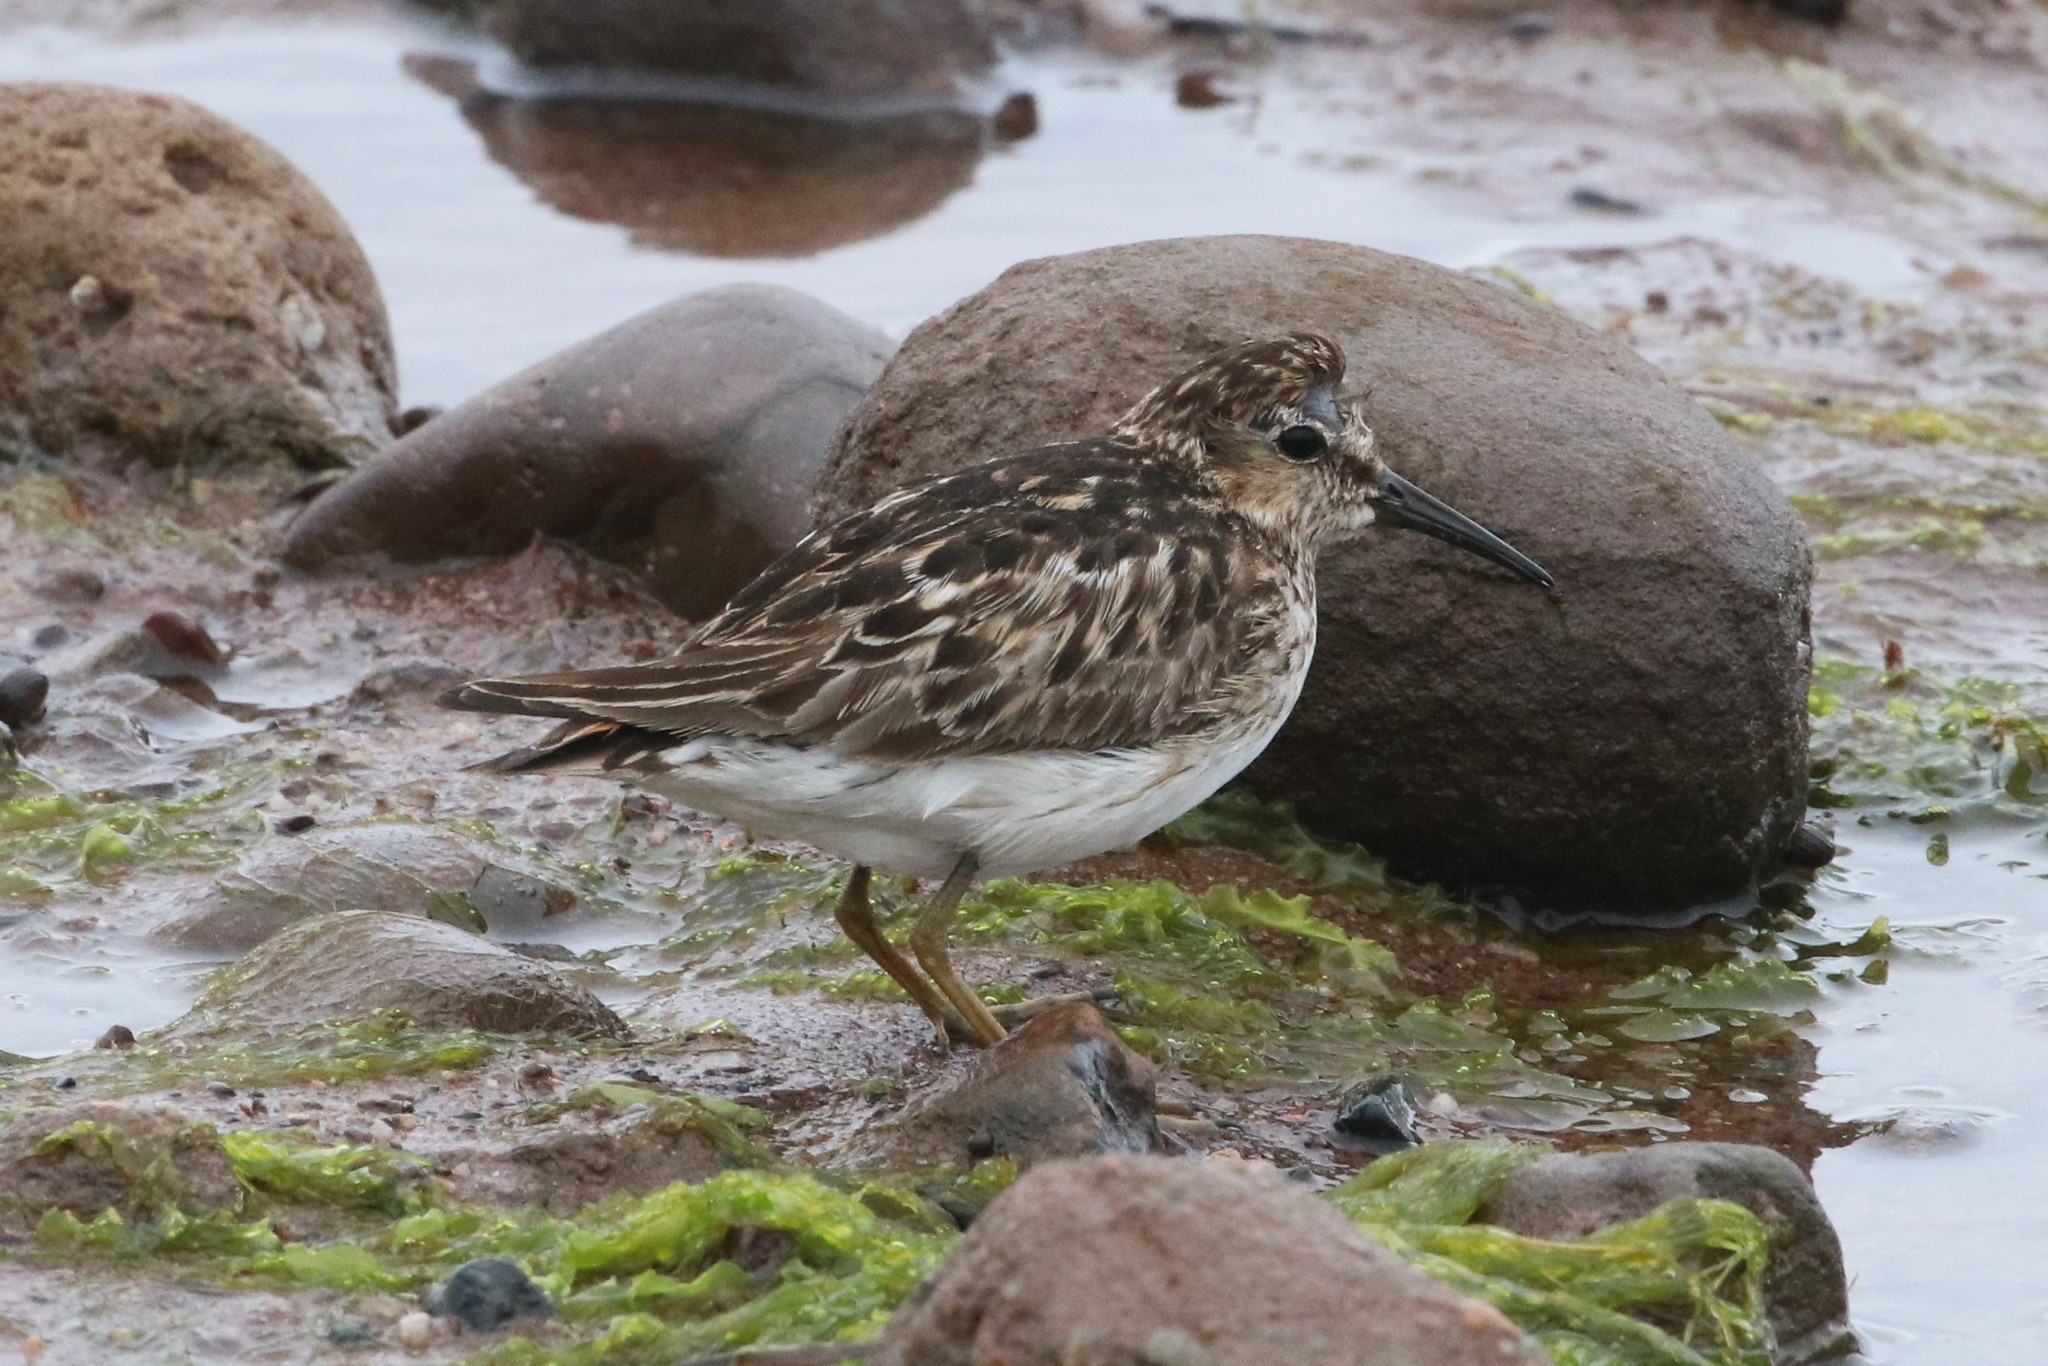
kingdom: Animalia
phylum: Chordata
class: Aves
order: Charadriiformes
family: Scolopacidae
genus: Calidris
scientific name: Calidris minutilla
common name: Least sandpiper
